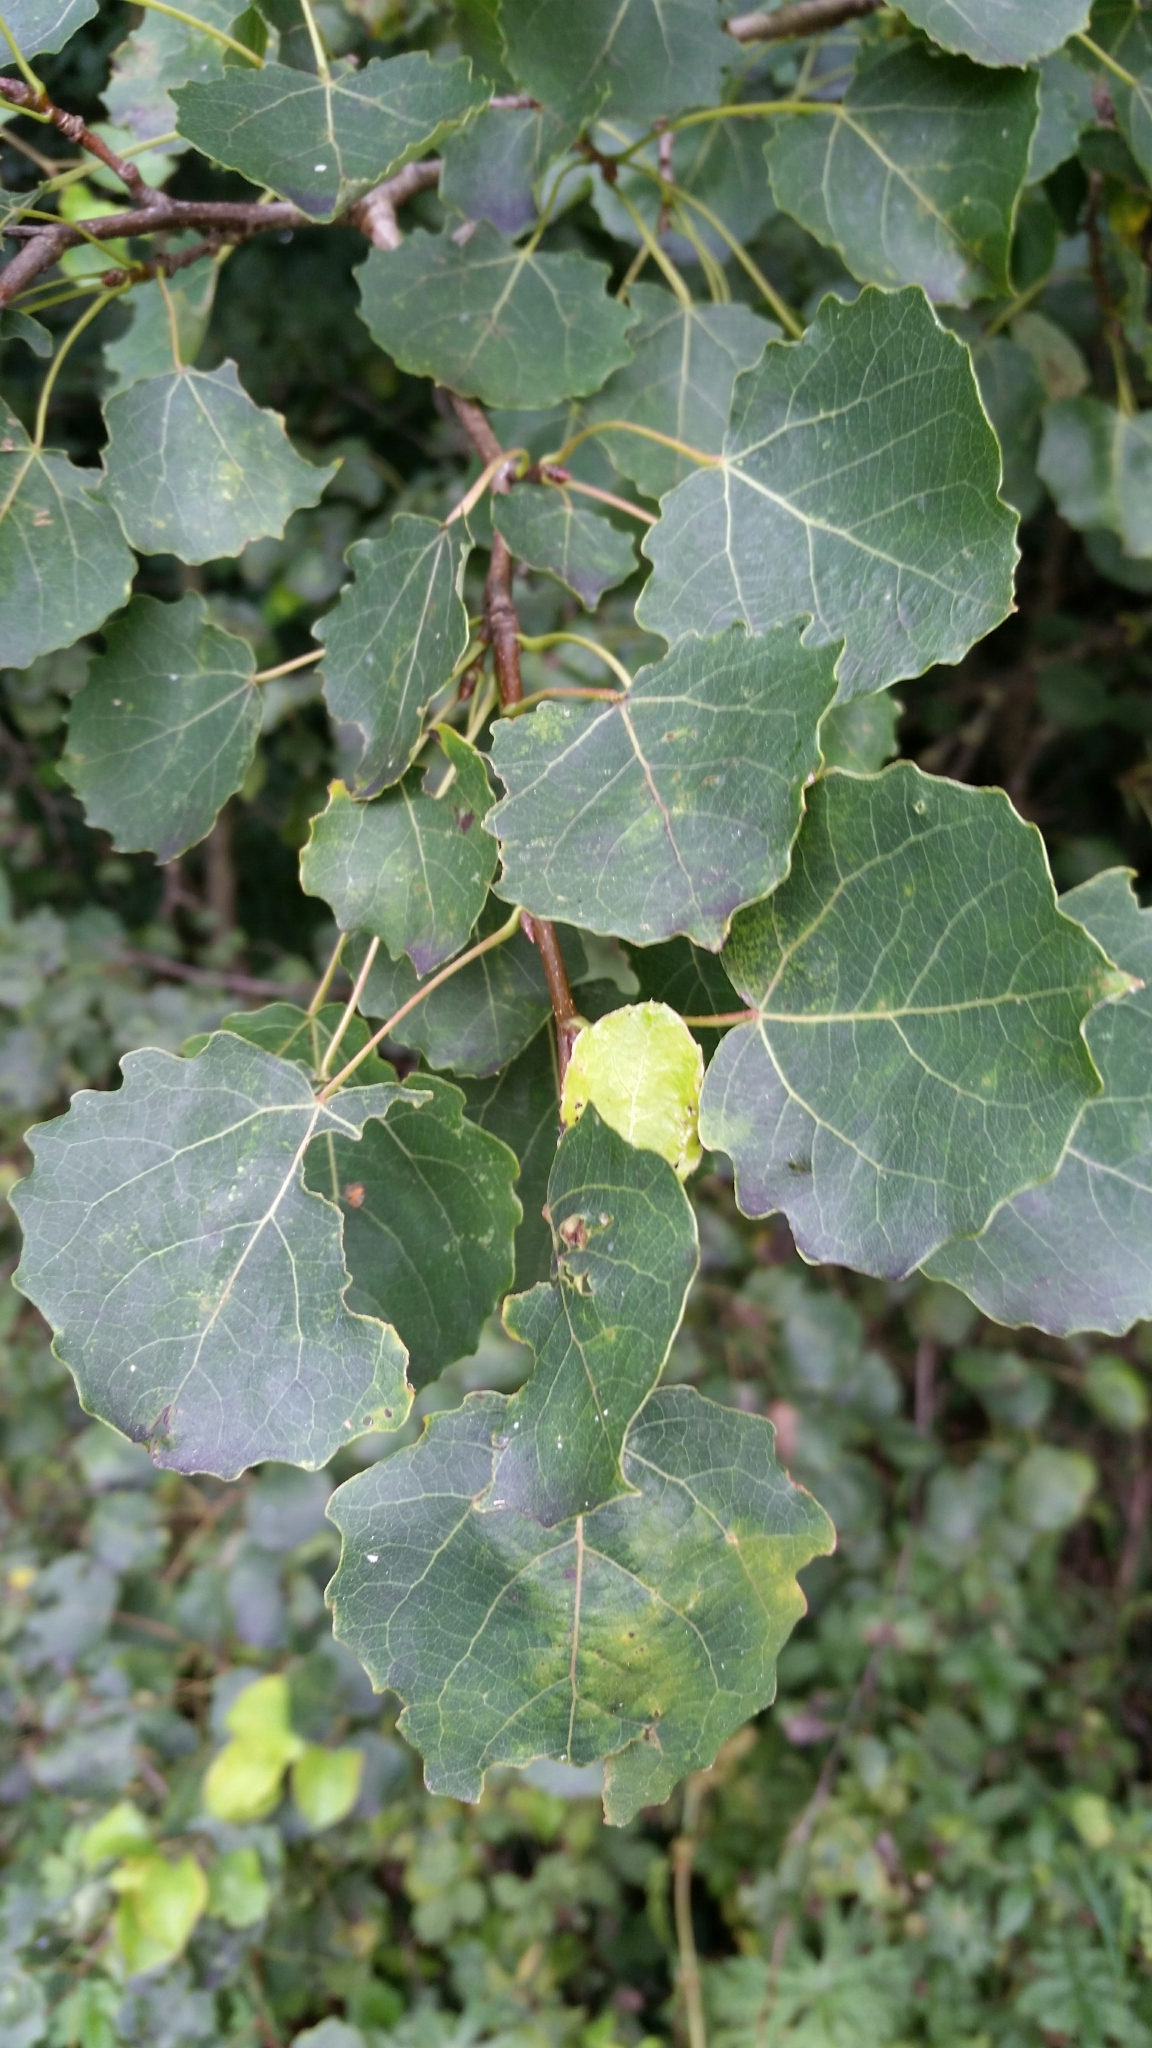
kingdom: Plantae
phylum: Tracheophyta
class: Magnoliopsida
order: Malpighiales
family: Salicaceae
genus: Populus
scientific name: Populus tremula
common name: European aspen
